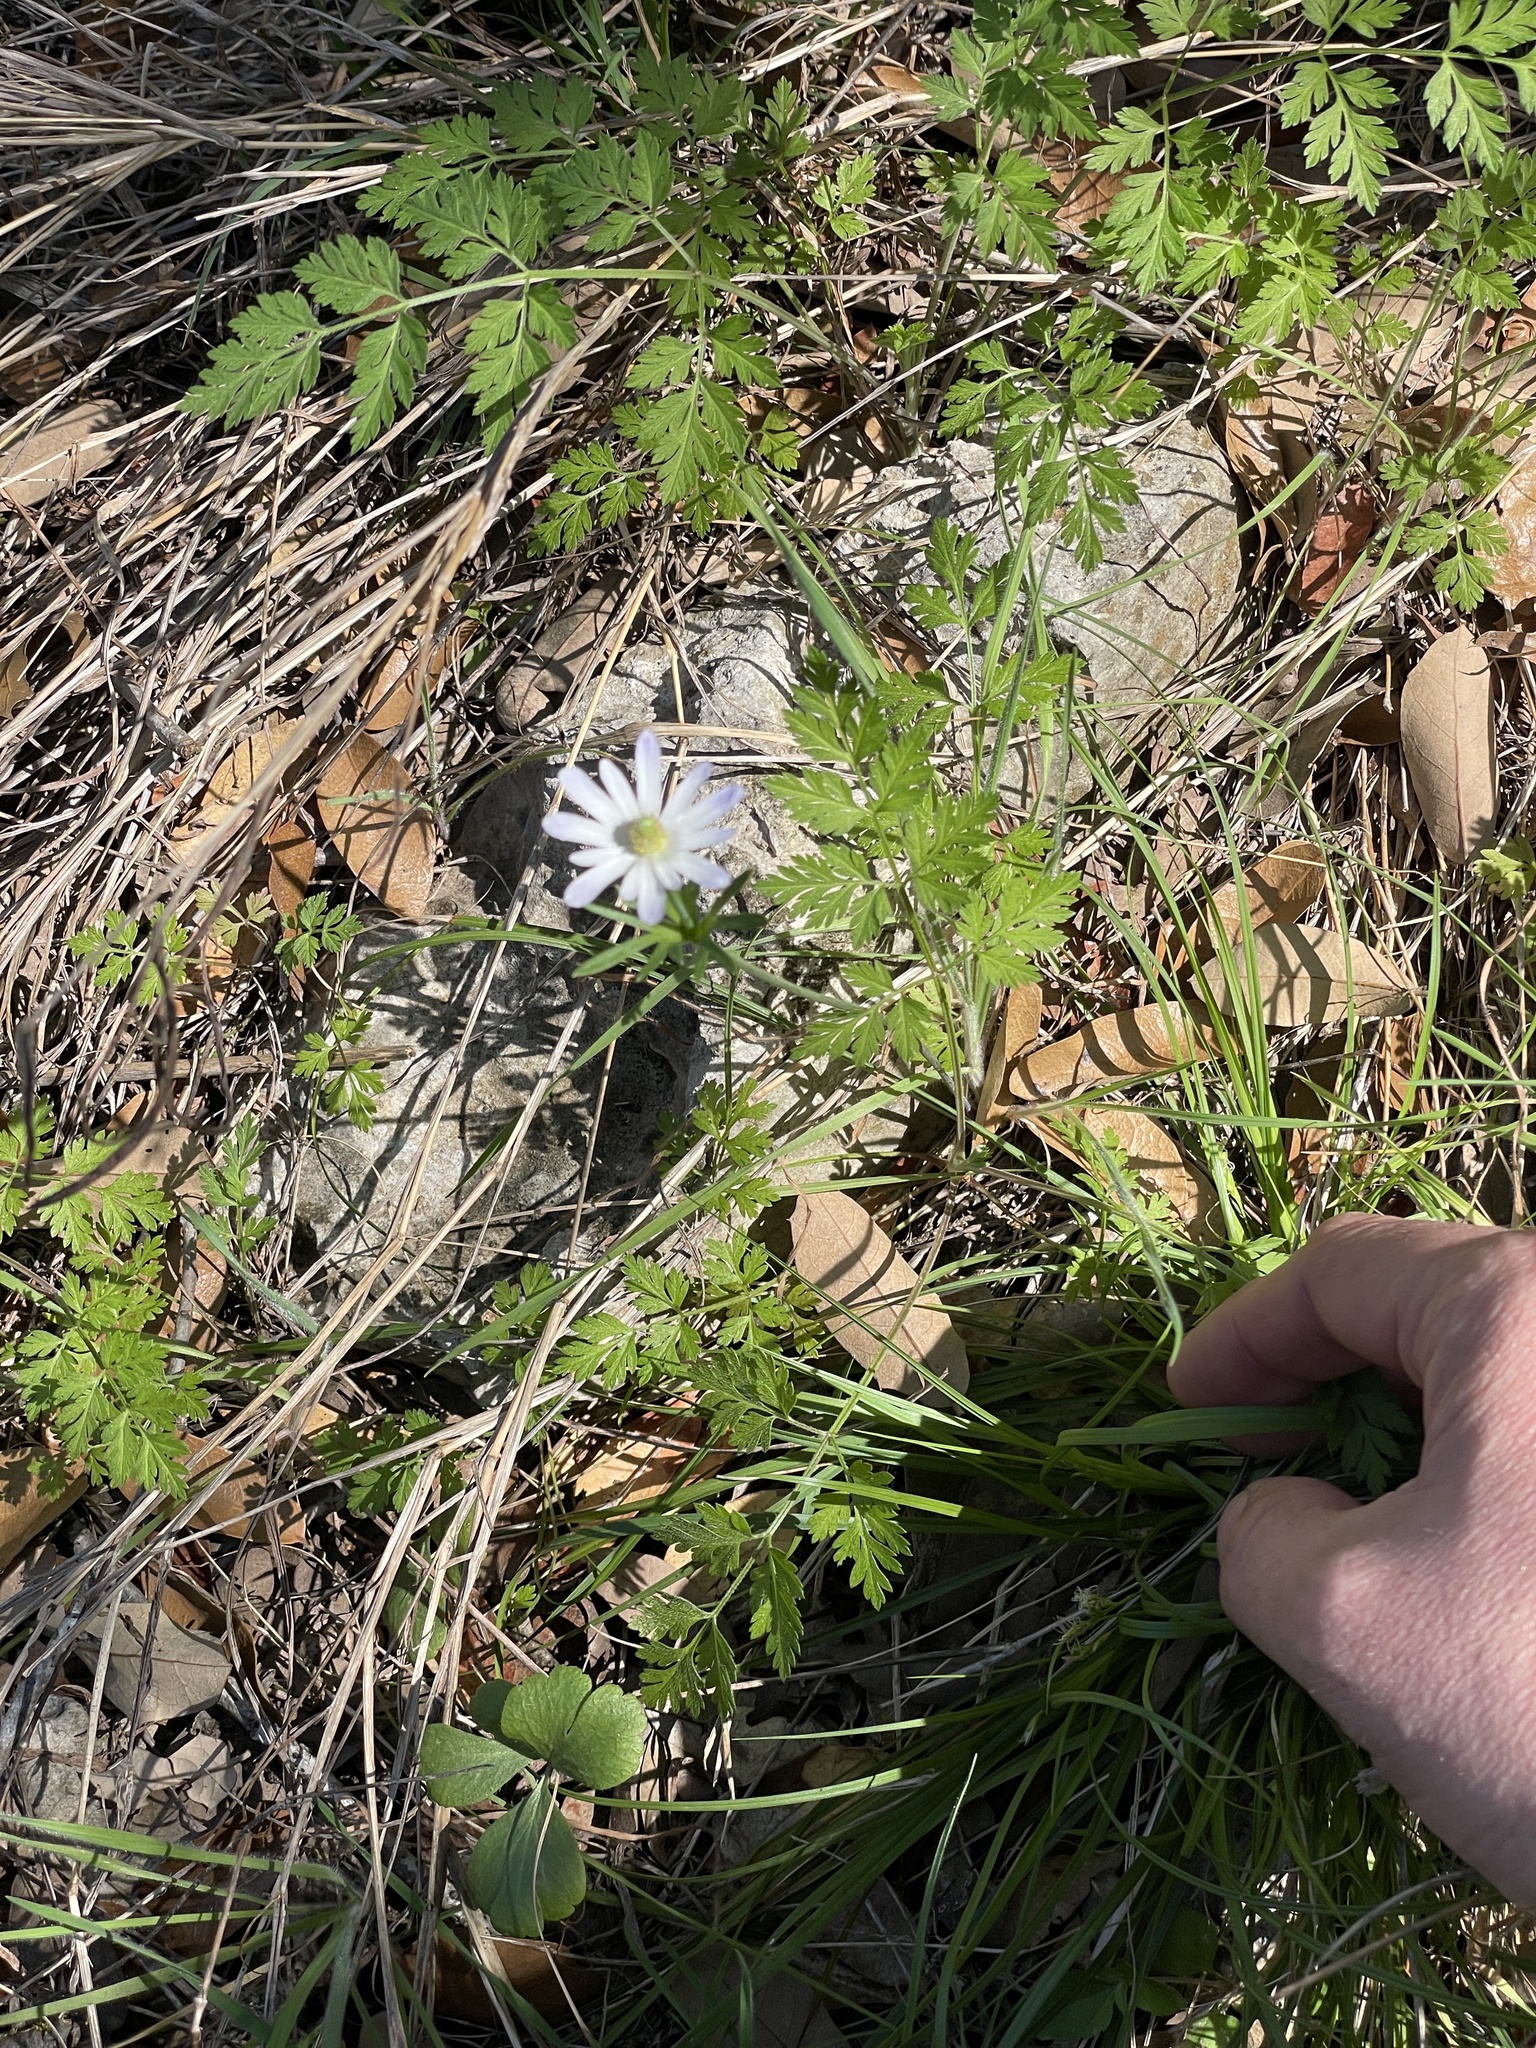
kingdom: Plantae
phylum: Tracheophyta
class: Magnoliopsida
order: Ranunculales
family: Ranunculaceae
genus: Anemone
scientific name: Anemone berlandieri
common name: Ten-petal anemone
